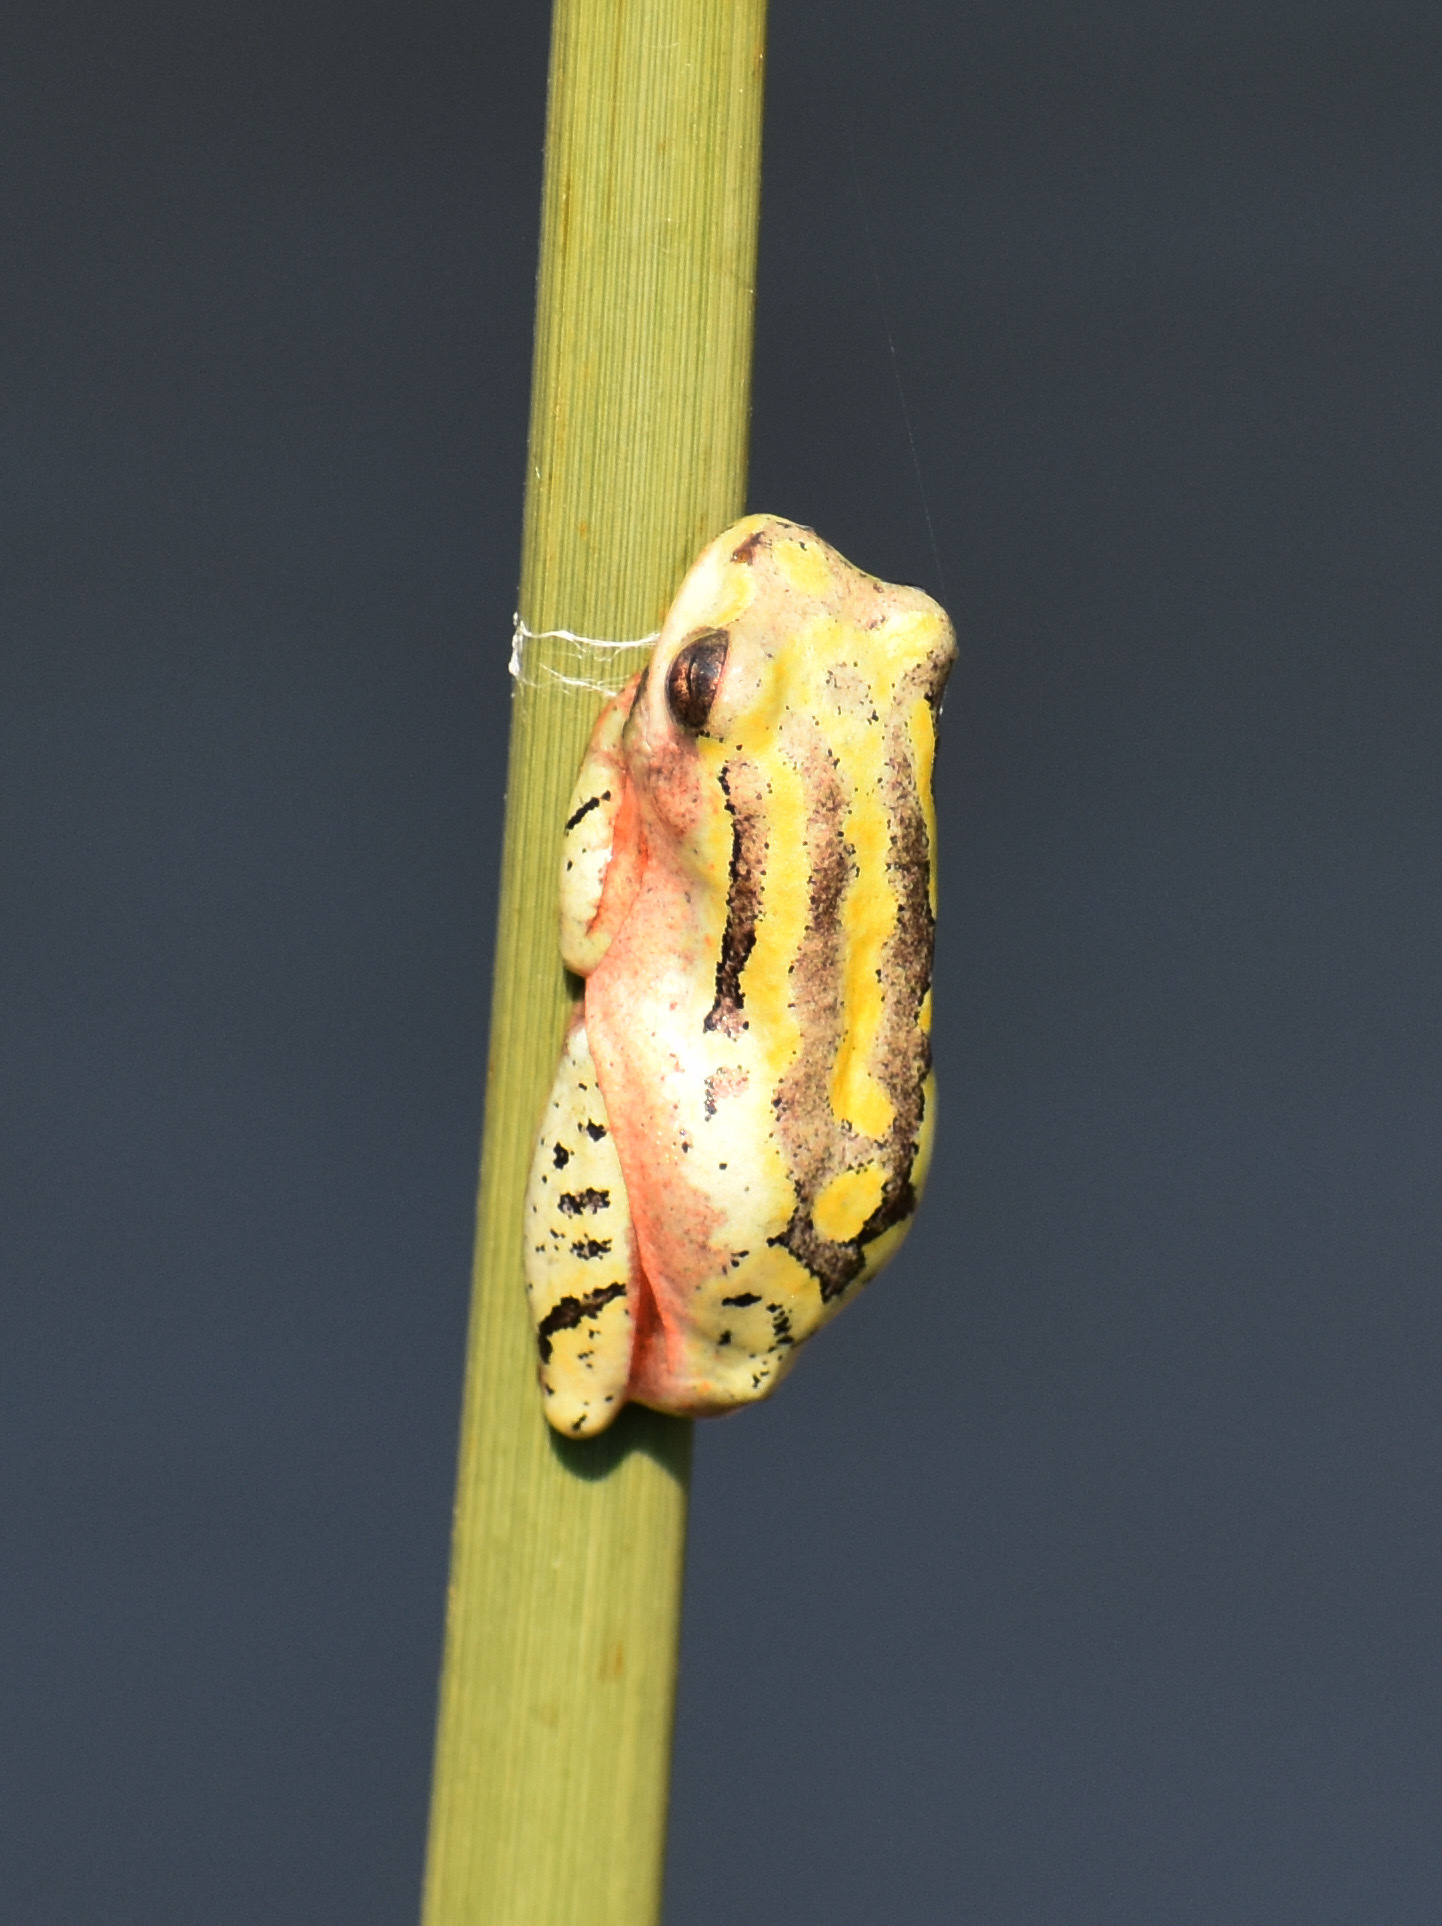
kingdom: Animalia
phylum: Chordata
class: Amphibia
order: Anura
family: Hyperoliidae
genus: Hyperolius
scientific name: Hyperolius marmoratus
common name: Painted reed frog
